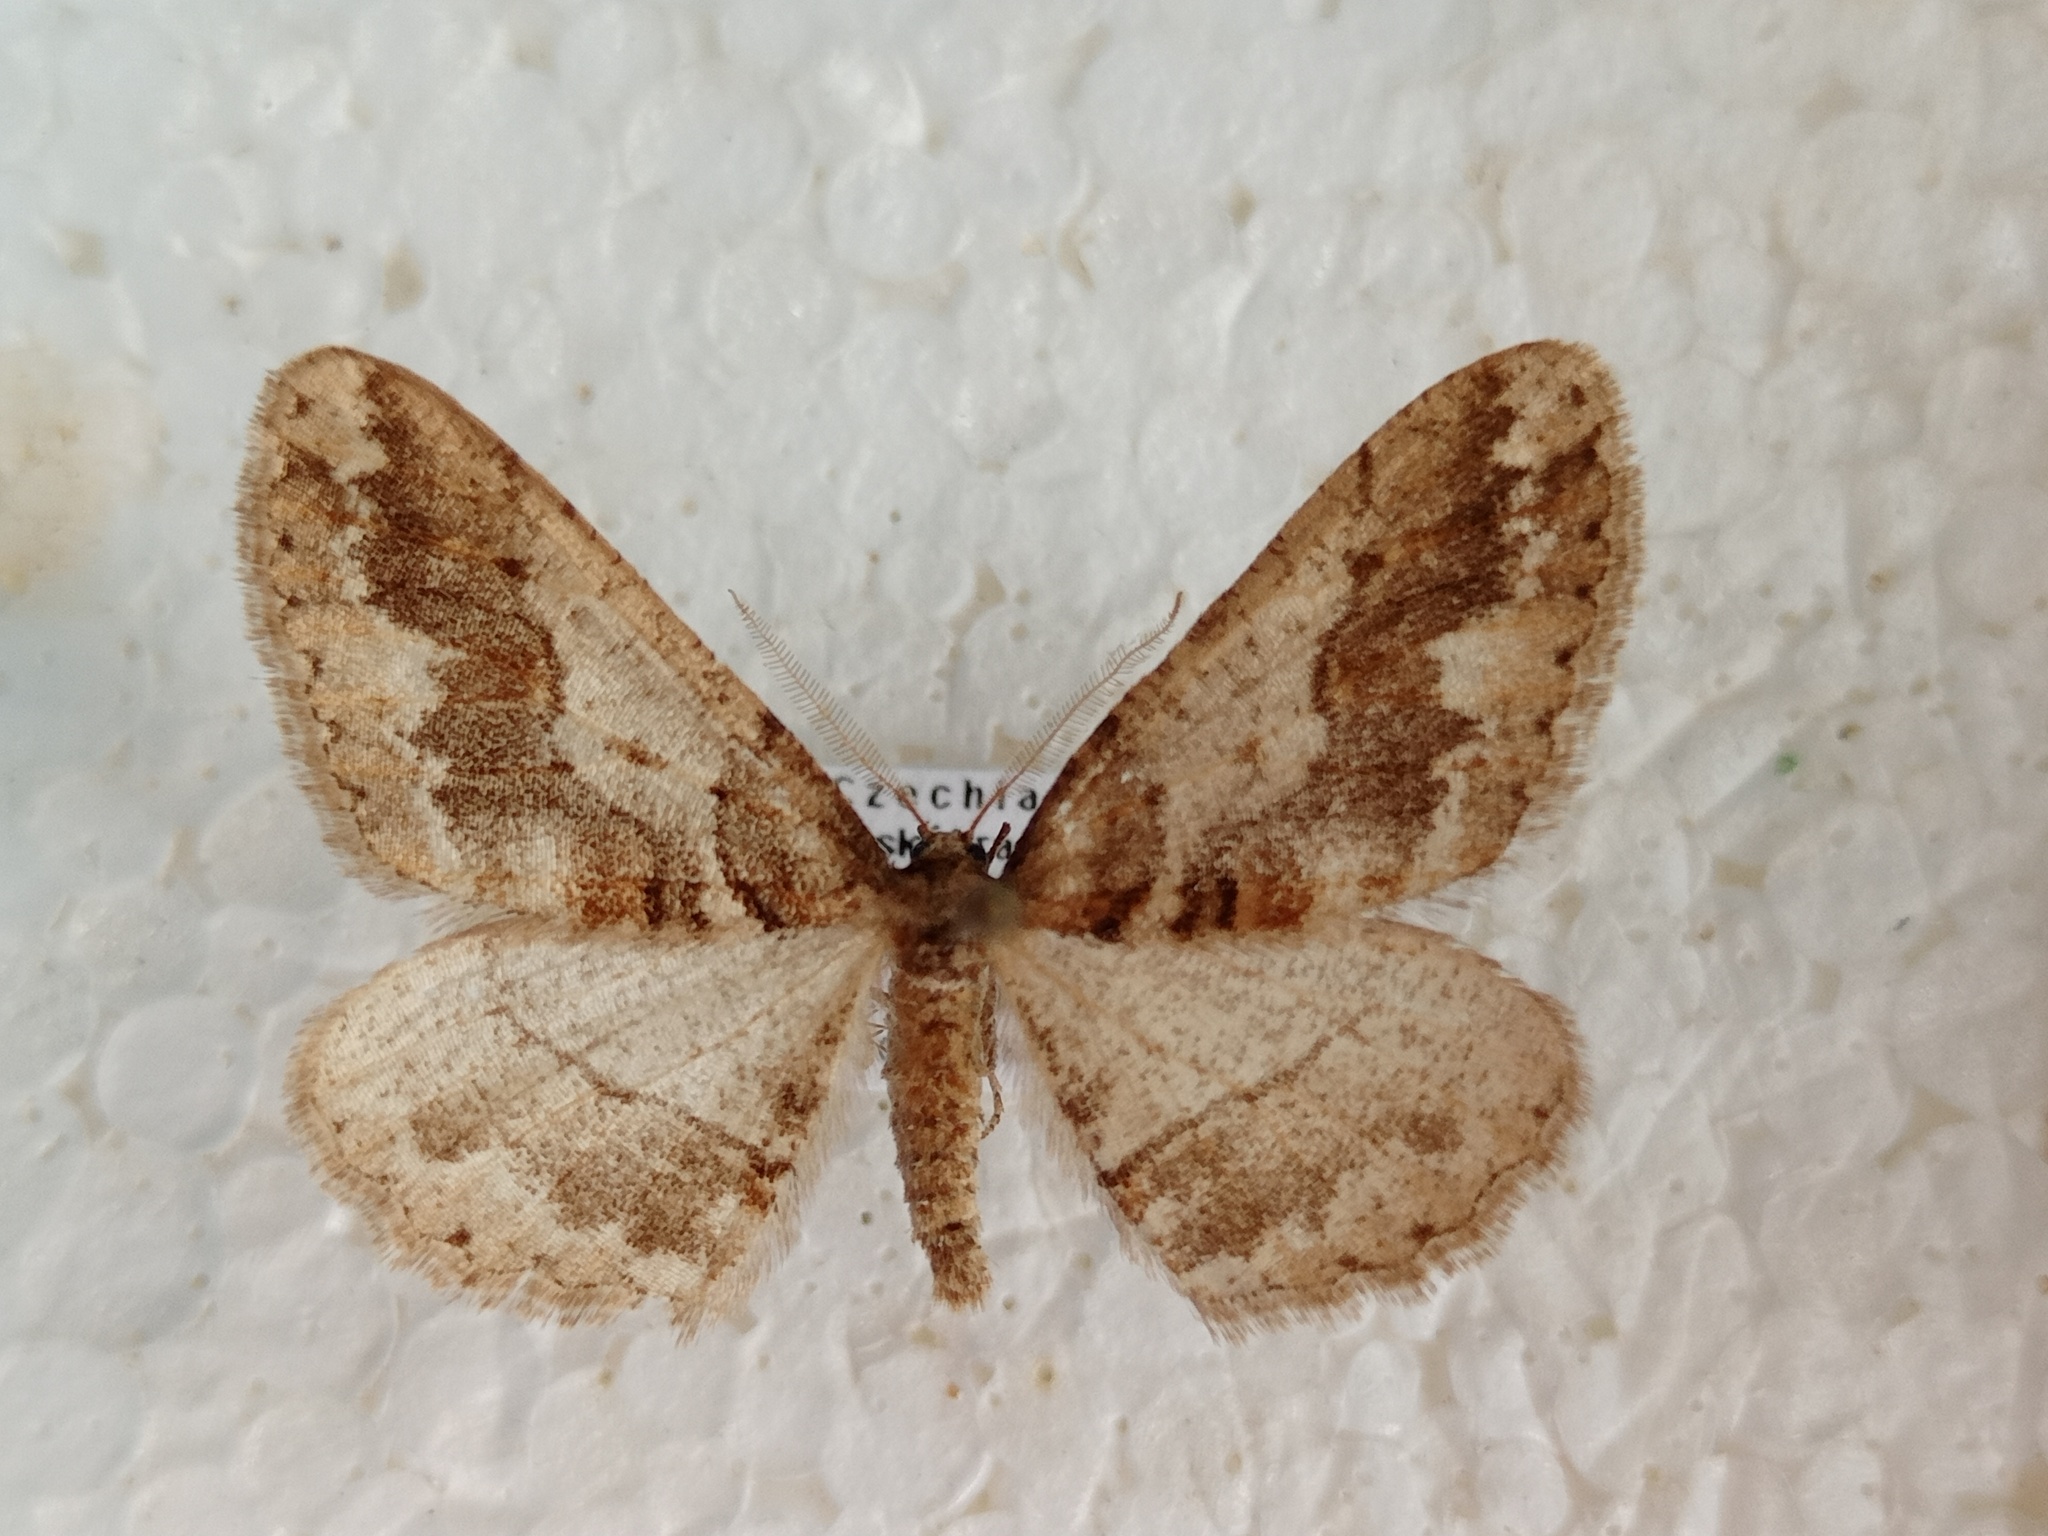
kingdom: Animalia
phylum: Arthropoda
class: Insecta
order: Lepidoptera
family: Geometridae
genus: Agriopis
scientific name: Agriopis bajaria
